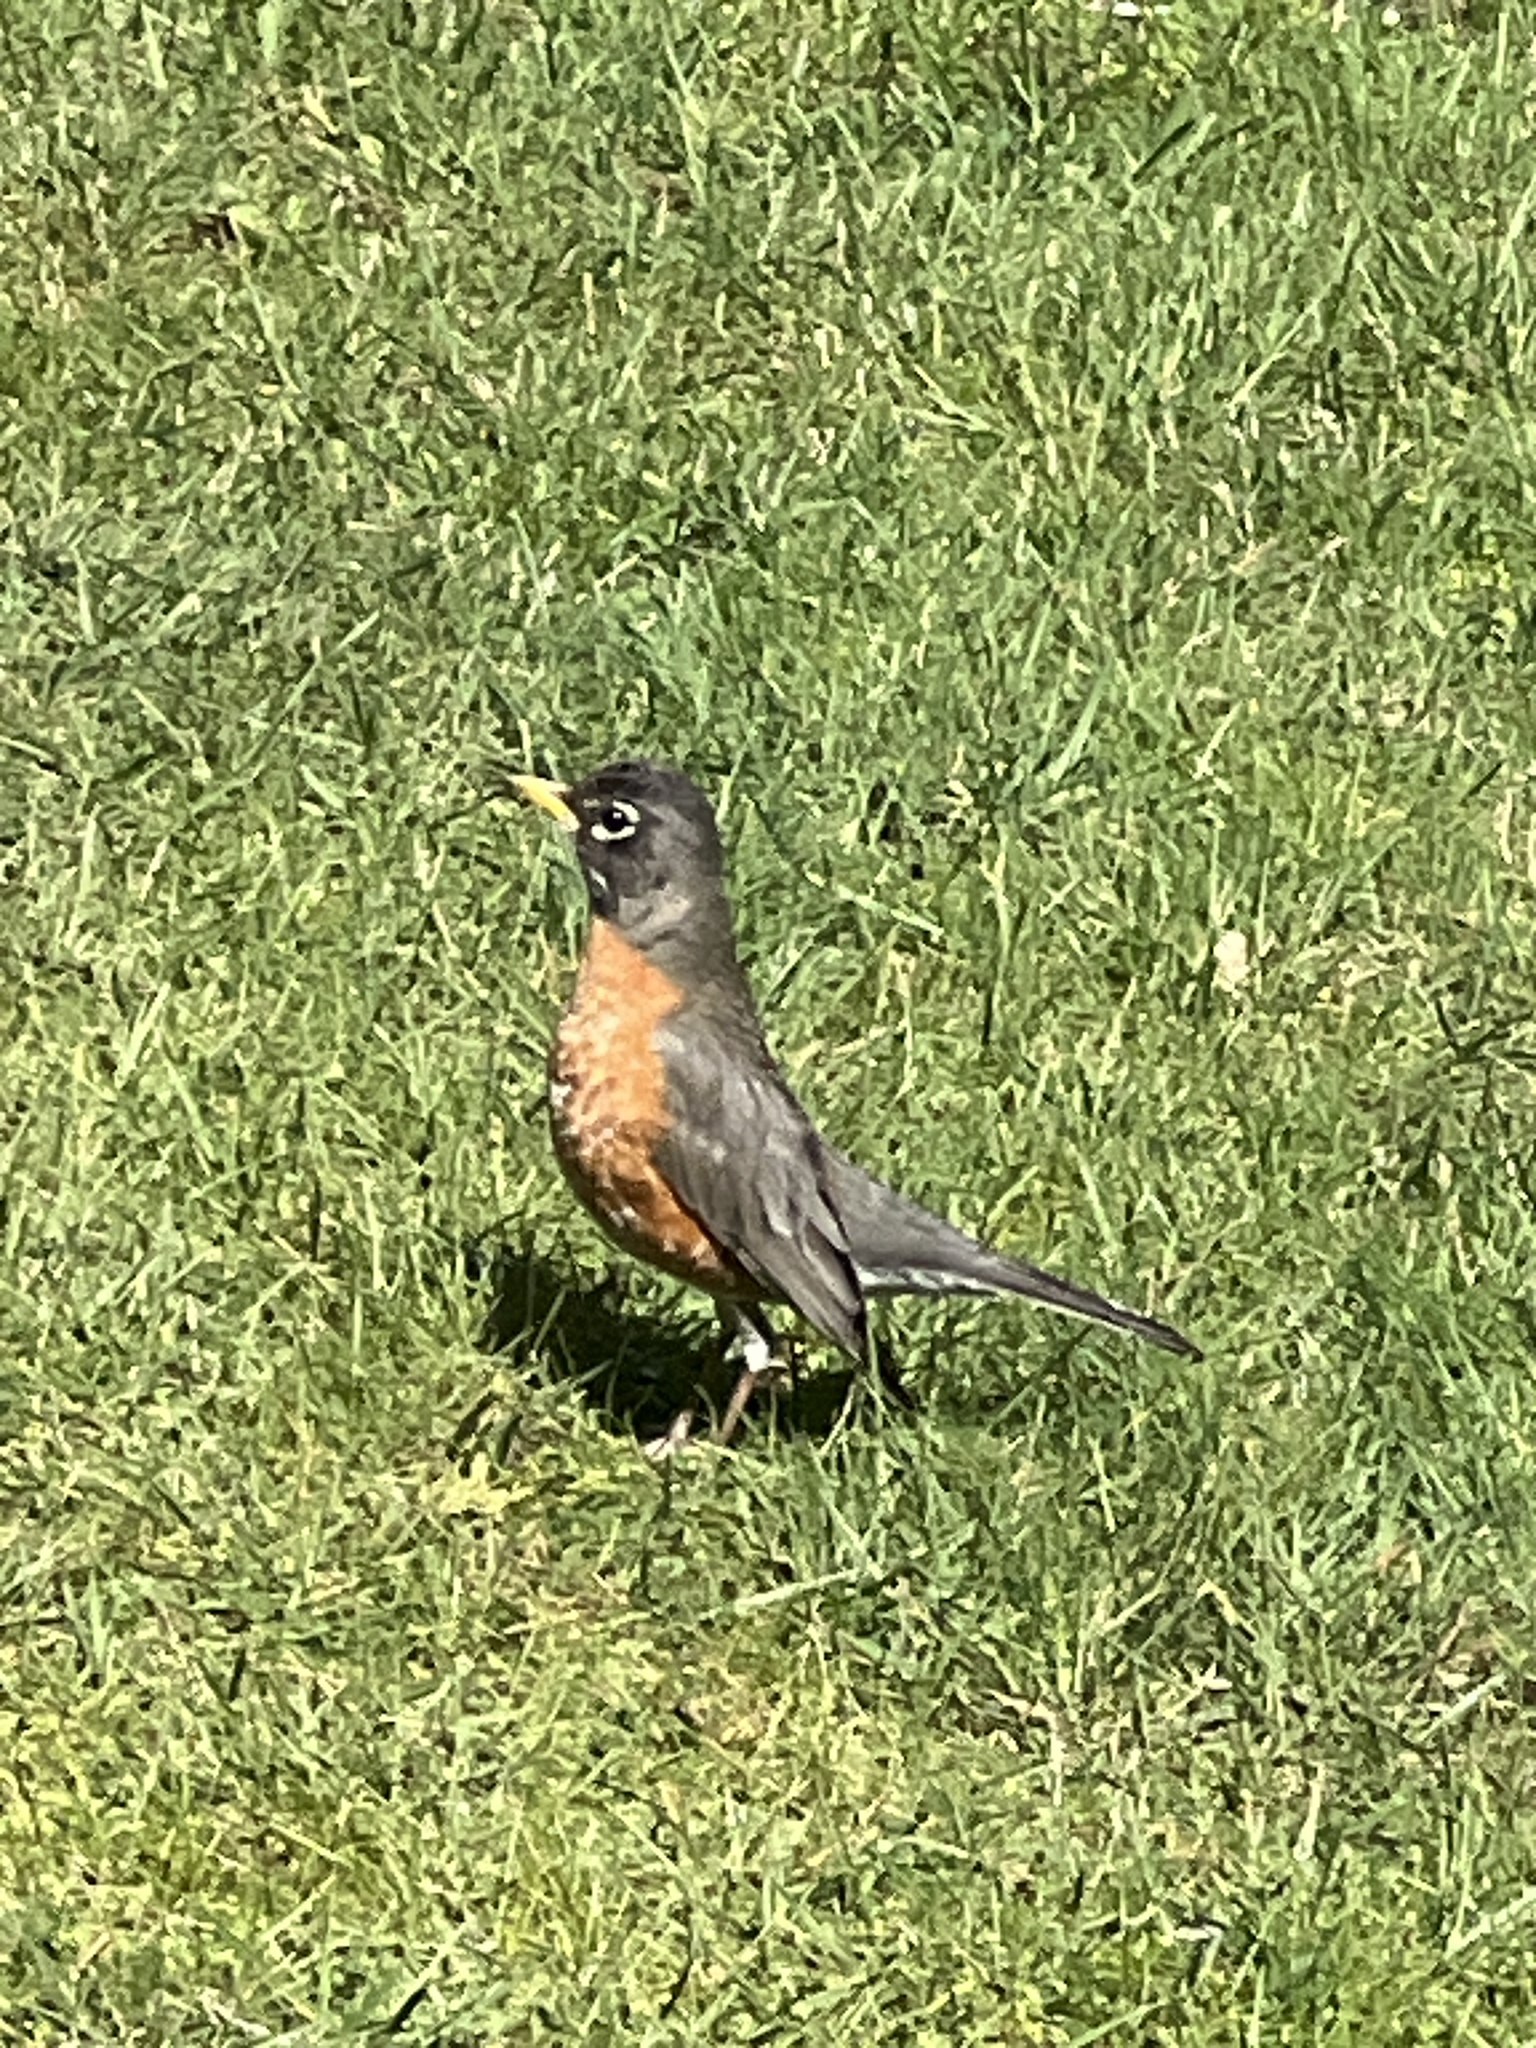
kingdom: Animalia
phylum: Chordata
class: Aves
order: Passeriformes
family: Turdidae
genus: Turdus
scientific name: Turdus migratorius
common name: American robin
